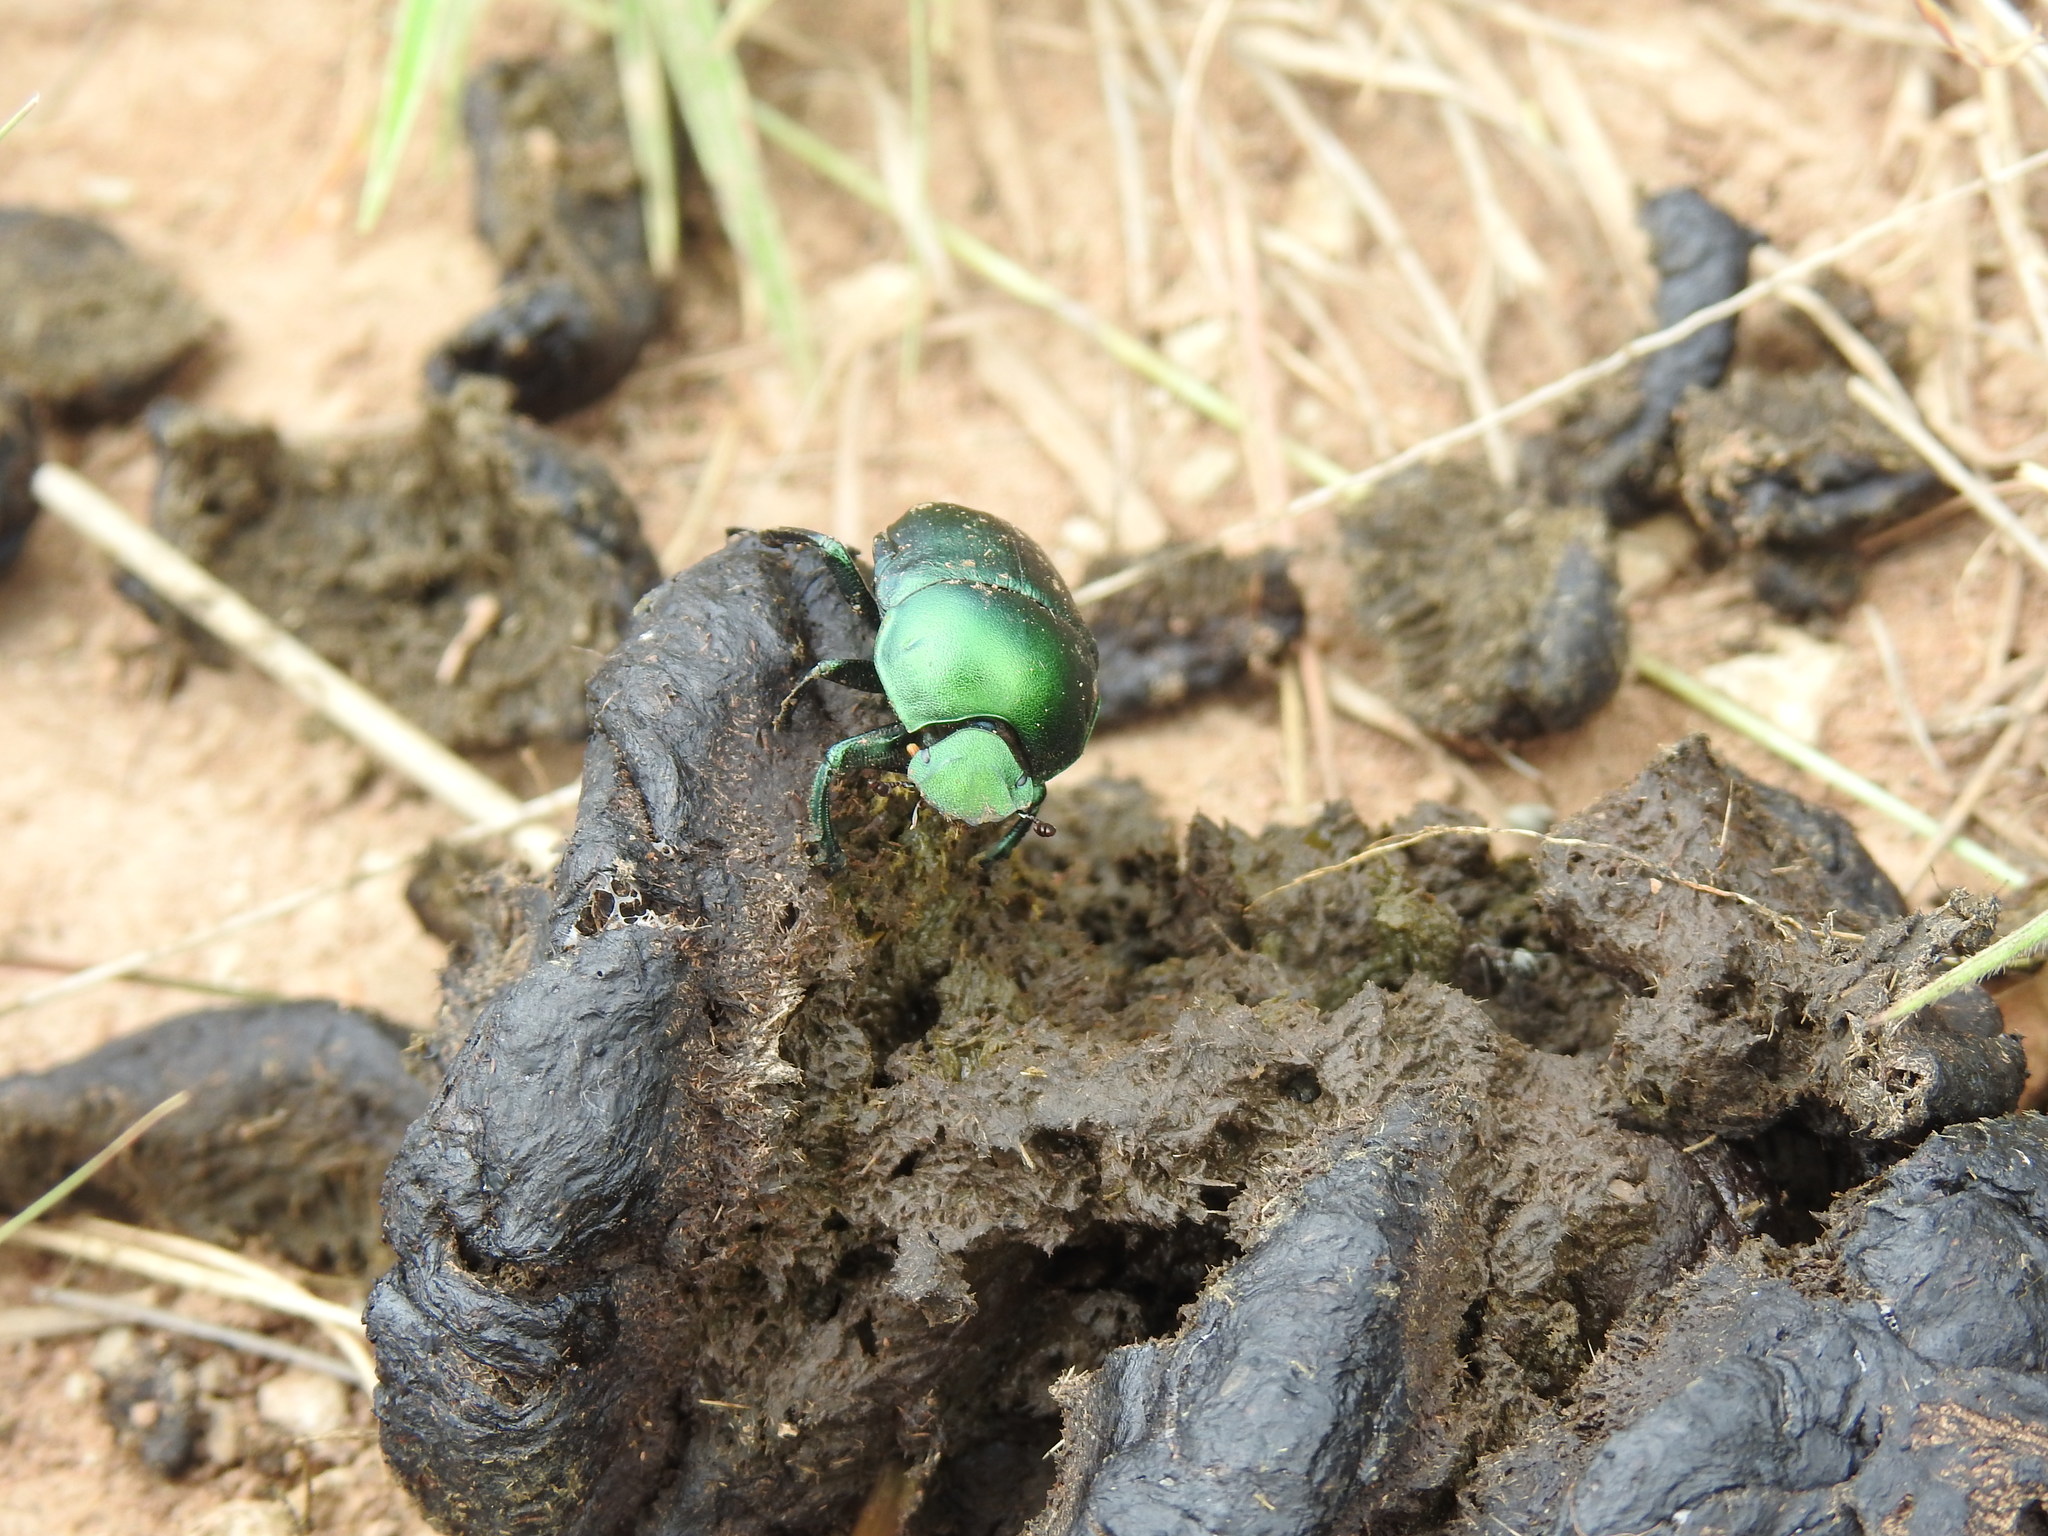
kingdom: Animalia
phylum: Arthropoda
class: Insecta
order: Coleoptera
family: Scarabaeidae
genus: Garreta
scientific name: Garreta wahlbergi
